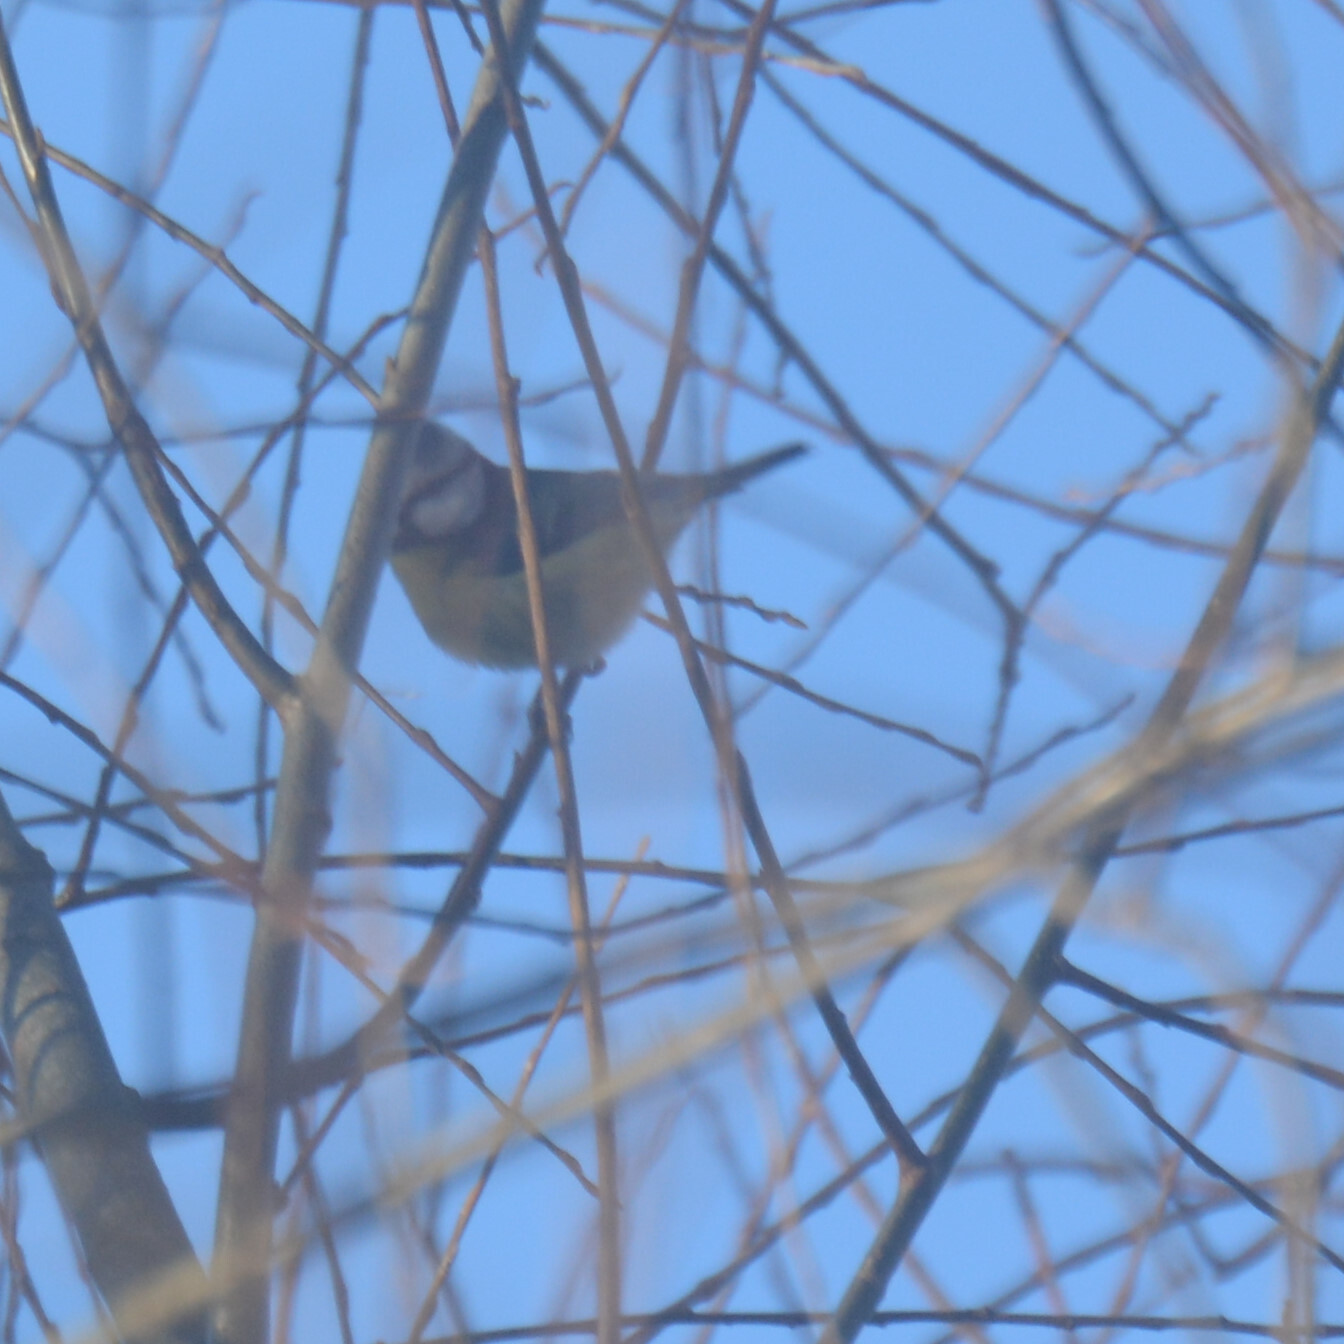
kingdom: Animalia
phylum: Chordata
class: Aves
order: Passeriformes
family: Paridae
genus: Cyanistes
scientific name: Cyanistes caeruleus
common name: Eurasian blue tit
